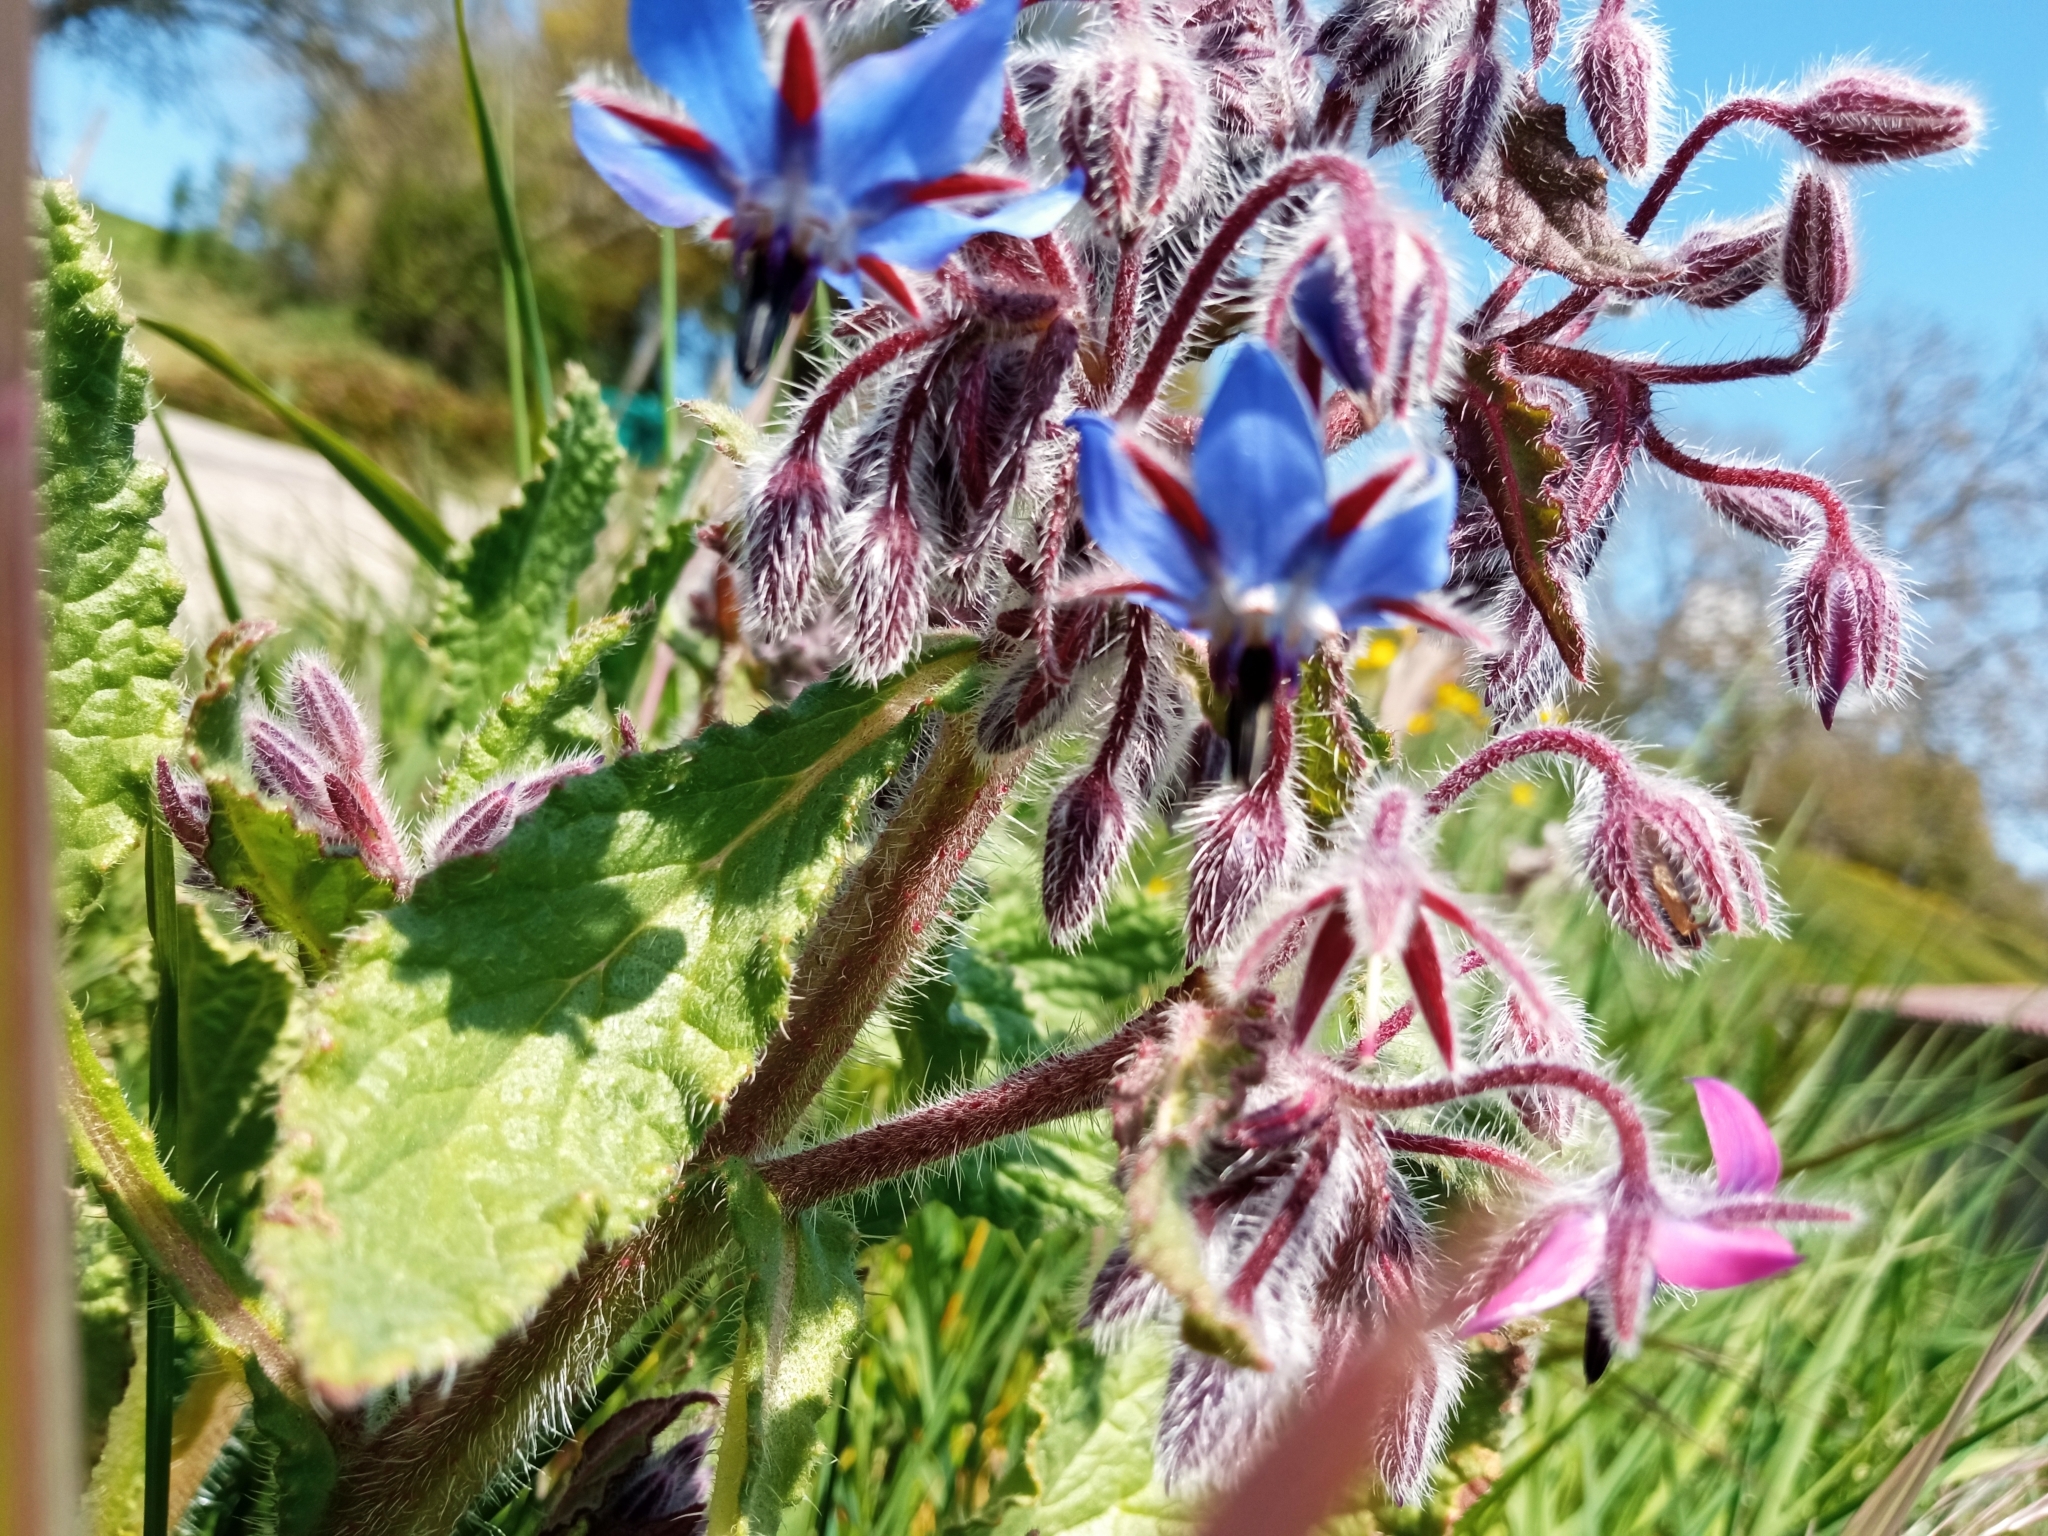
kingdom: Plantae
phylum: Tracheophyta
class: Magnoliopsida
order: Boraginales
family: Boraginaceae
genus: Borago
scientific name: Borago officinalis
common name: Borage
